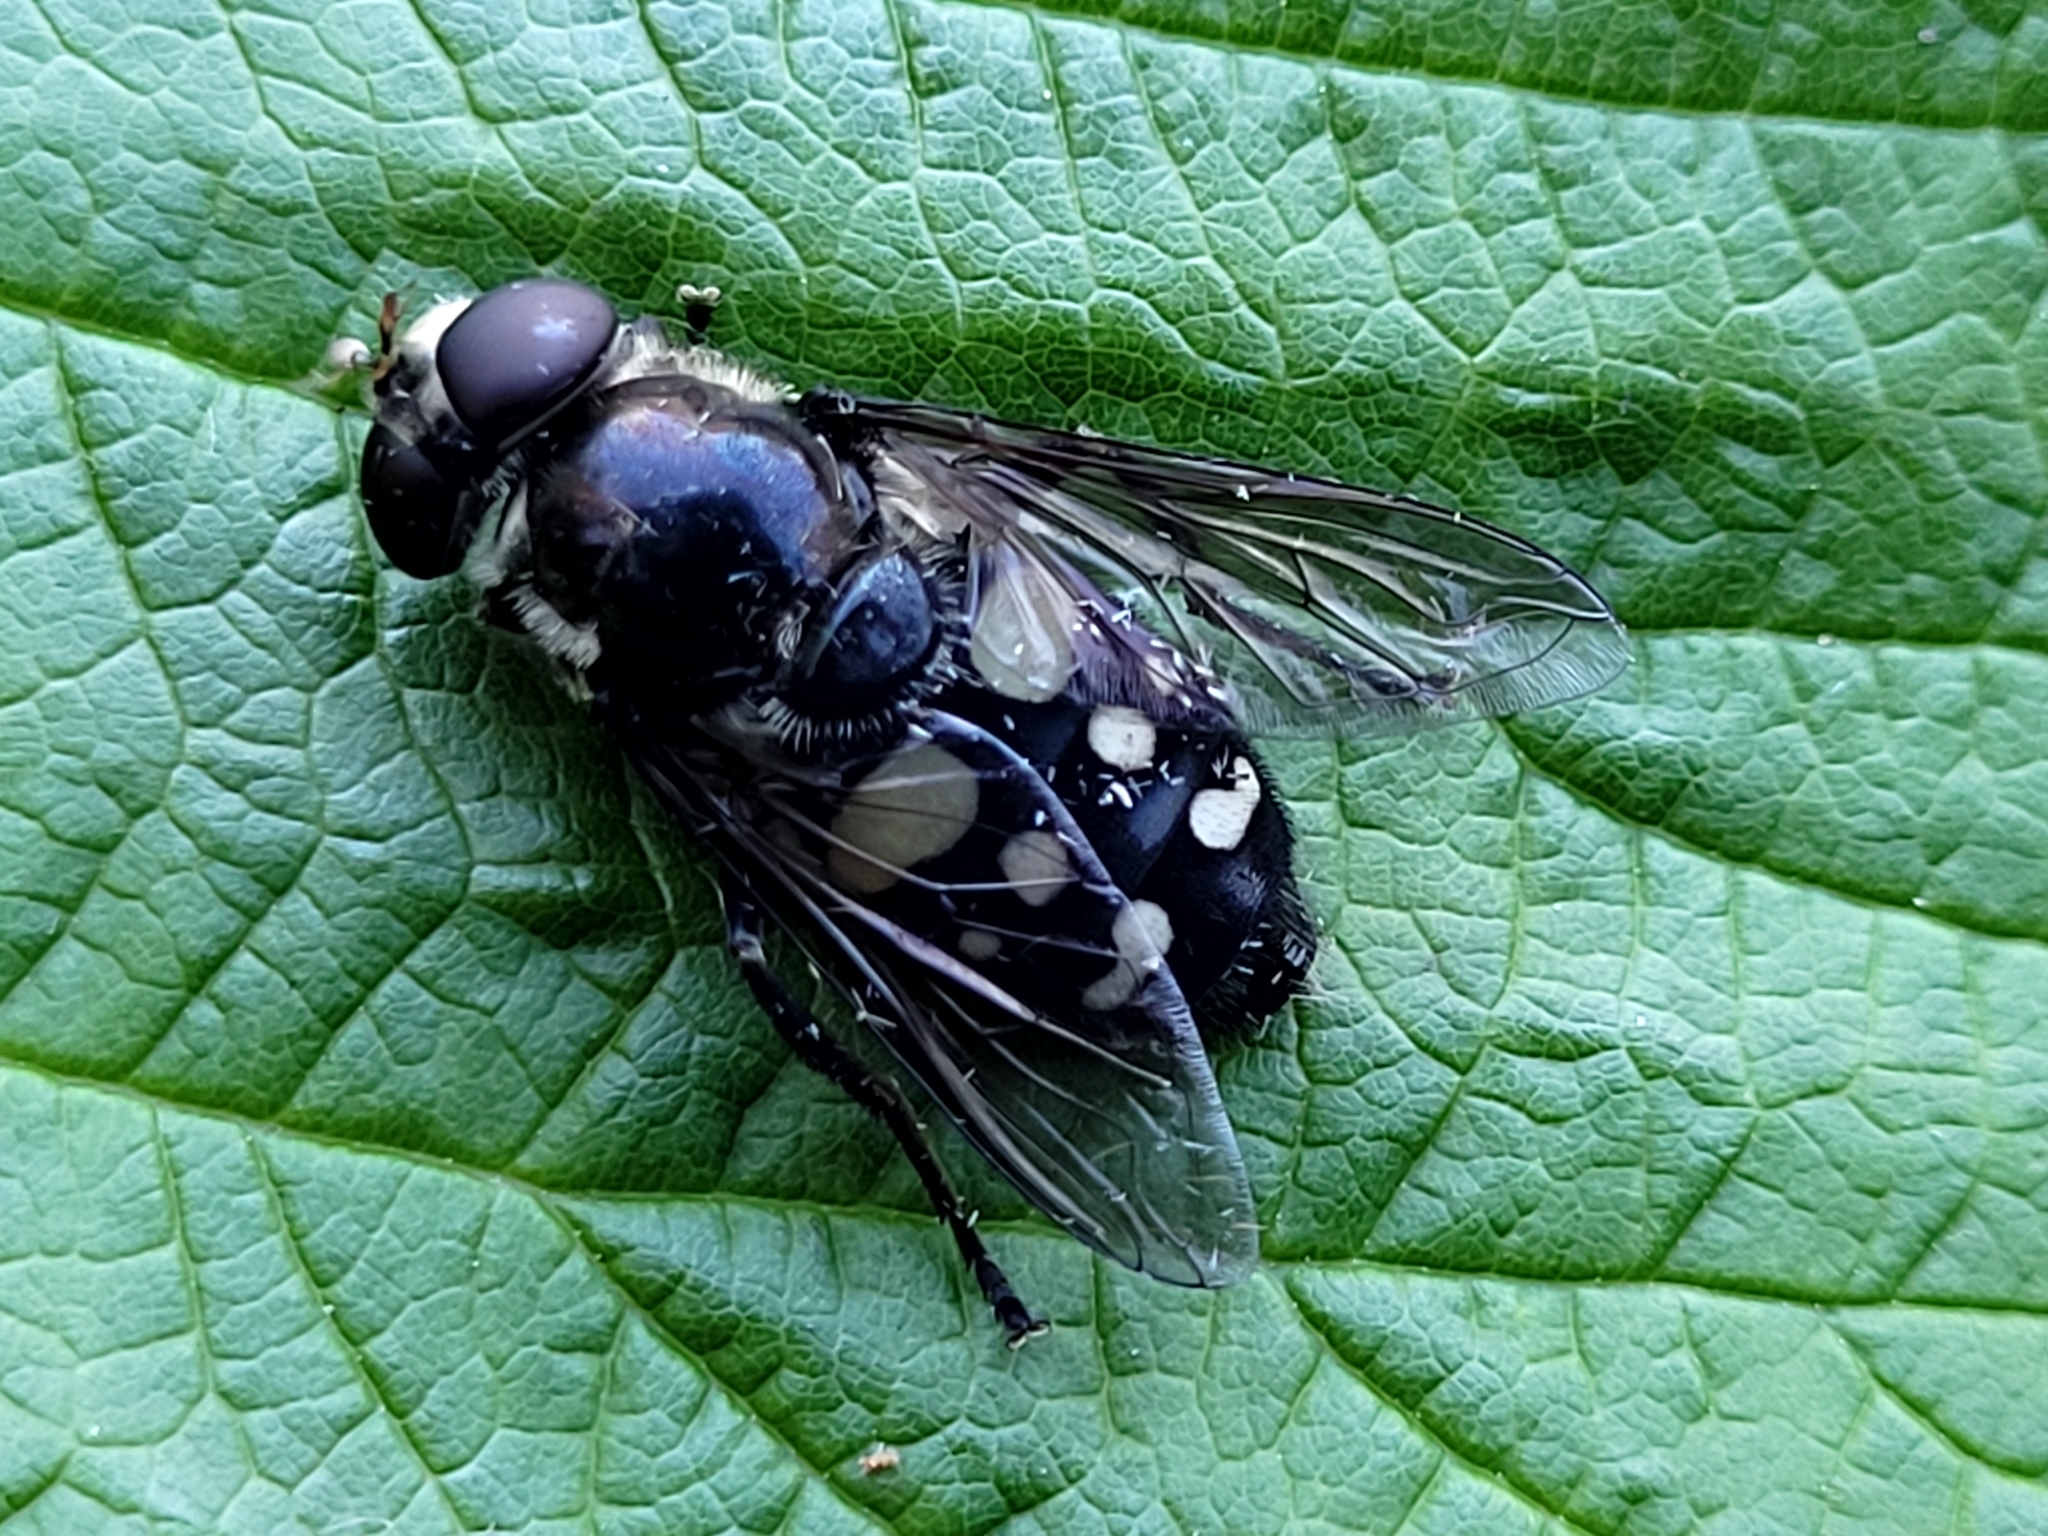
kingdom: Animalia
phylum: Arthropoda
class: Insecta
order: Diptera
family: Syrphidae
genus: Sericomyia
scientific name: Sericomyia lata
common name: White-spotted pond fly
